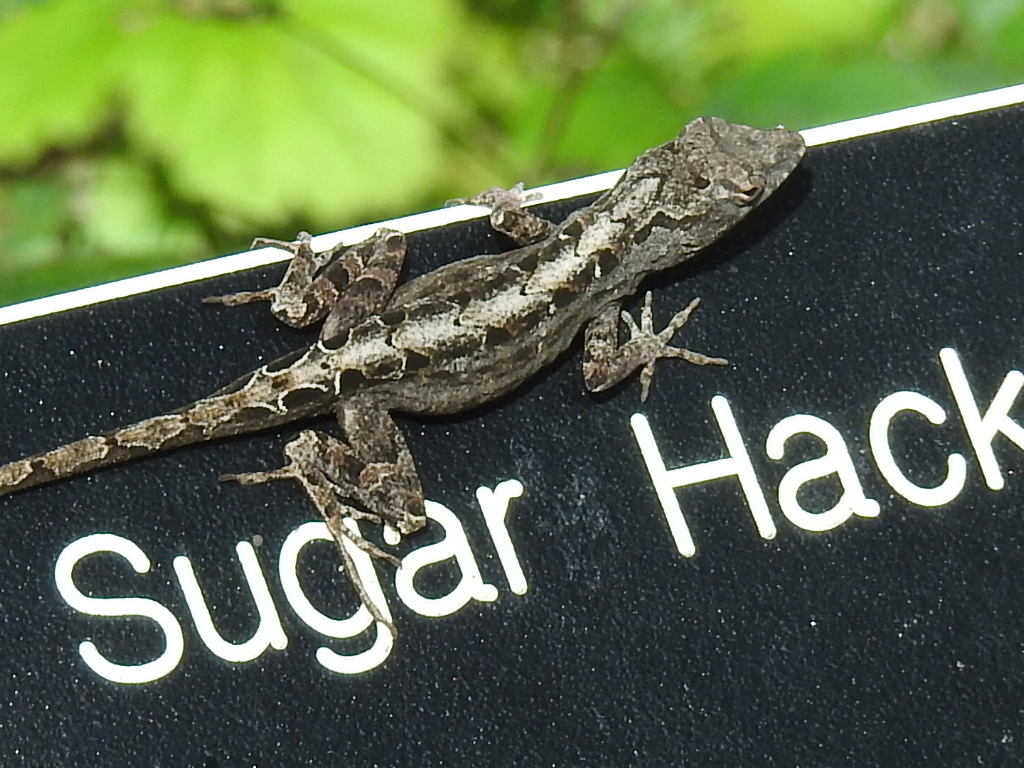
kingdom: Animalia
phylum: Chordata
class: Squamata
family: Dactyloidae
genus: Anolis
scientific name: Anolis sagrei
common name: Brown anole
